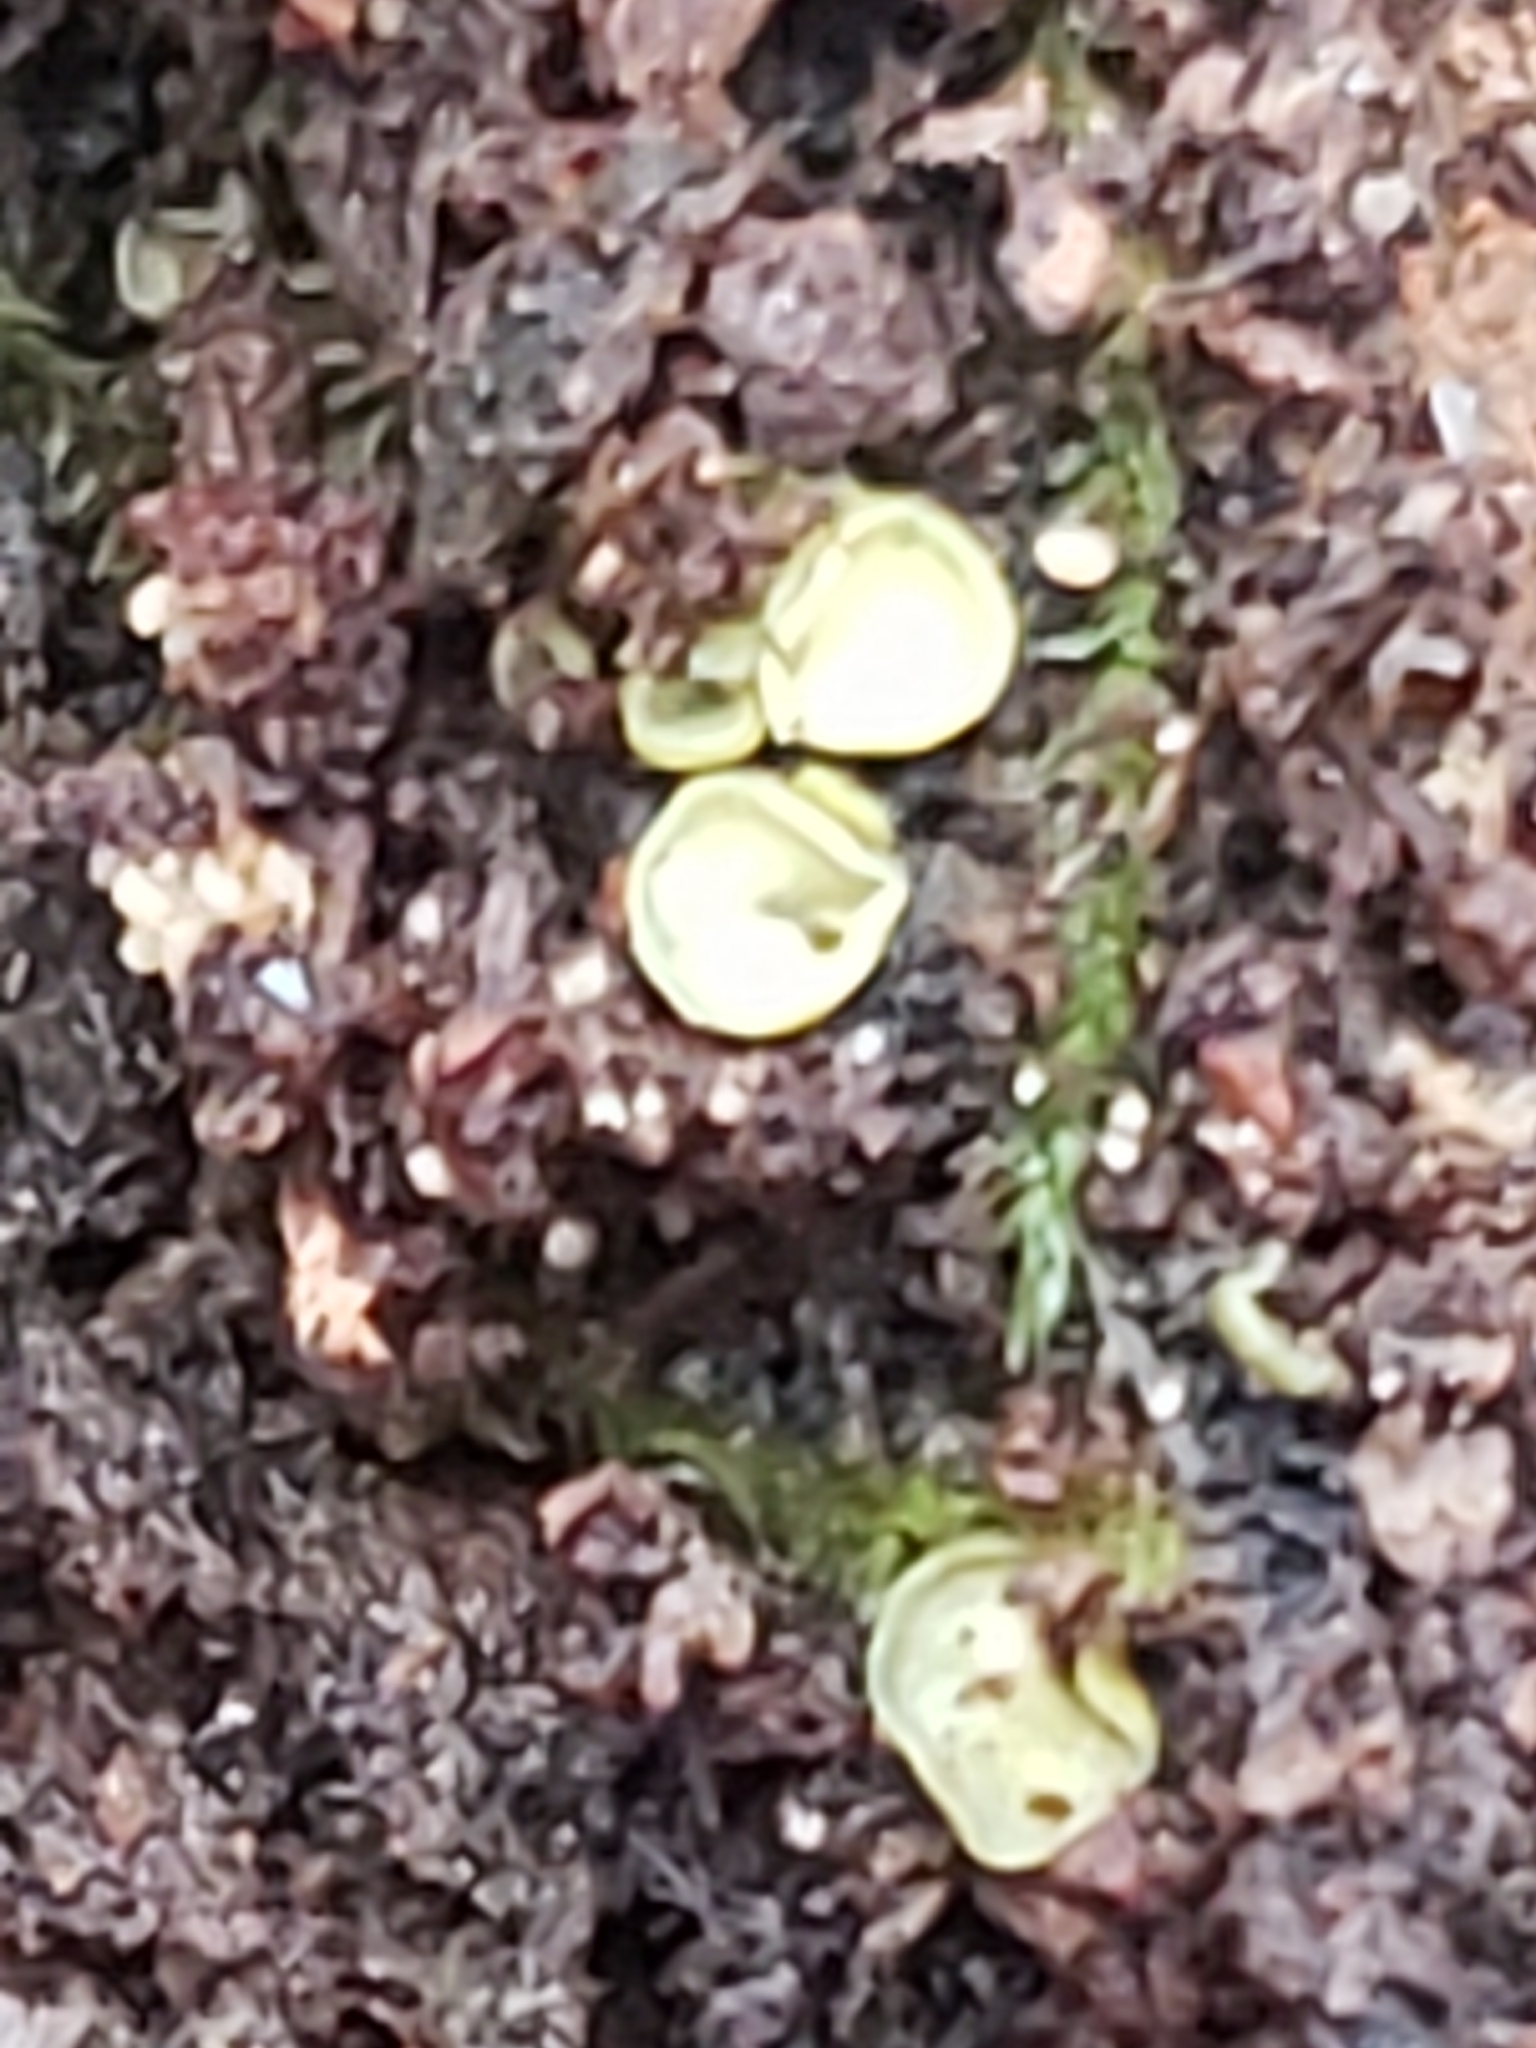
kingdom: Fungi
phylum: Ascomycota
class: Leotiomycetes
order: Helotiales
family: Chlorospleniaceae
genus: Chlorosplenium
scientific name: Chlorosplenium chlora
